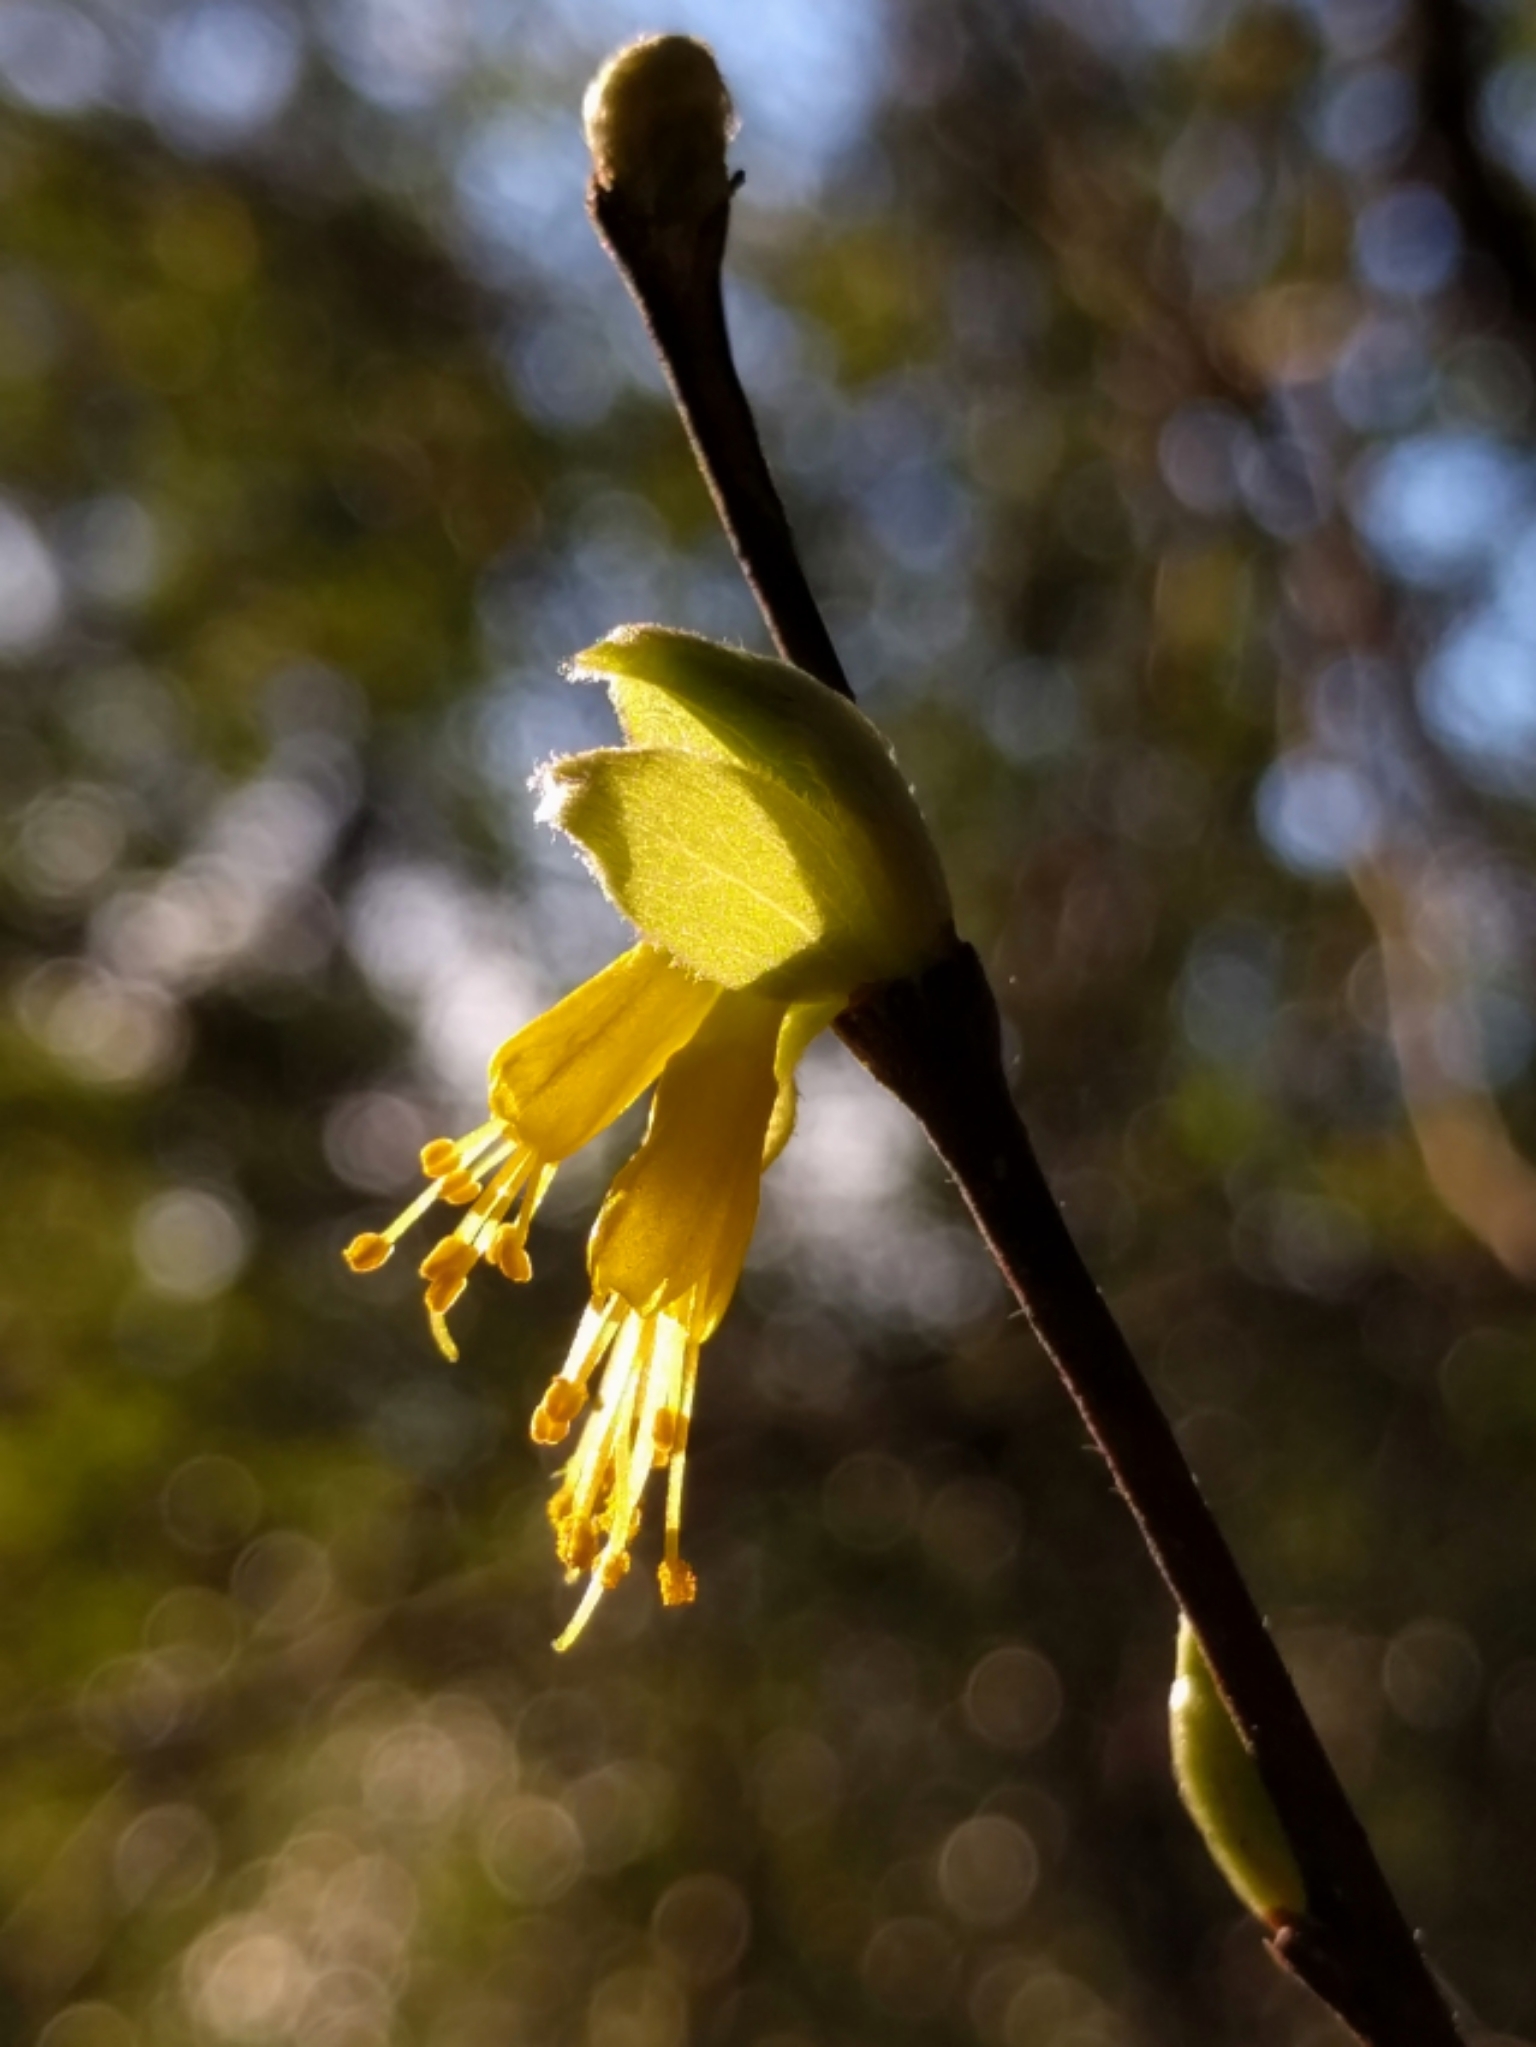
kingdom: Plantae
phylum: Tracheophyta
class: Magnoliopsida
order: Malvales
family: Thymelaeaceae
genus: Dirca
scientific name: Dirca occidentalis
